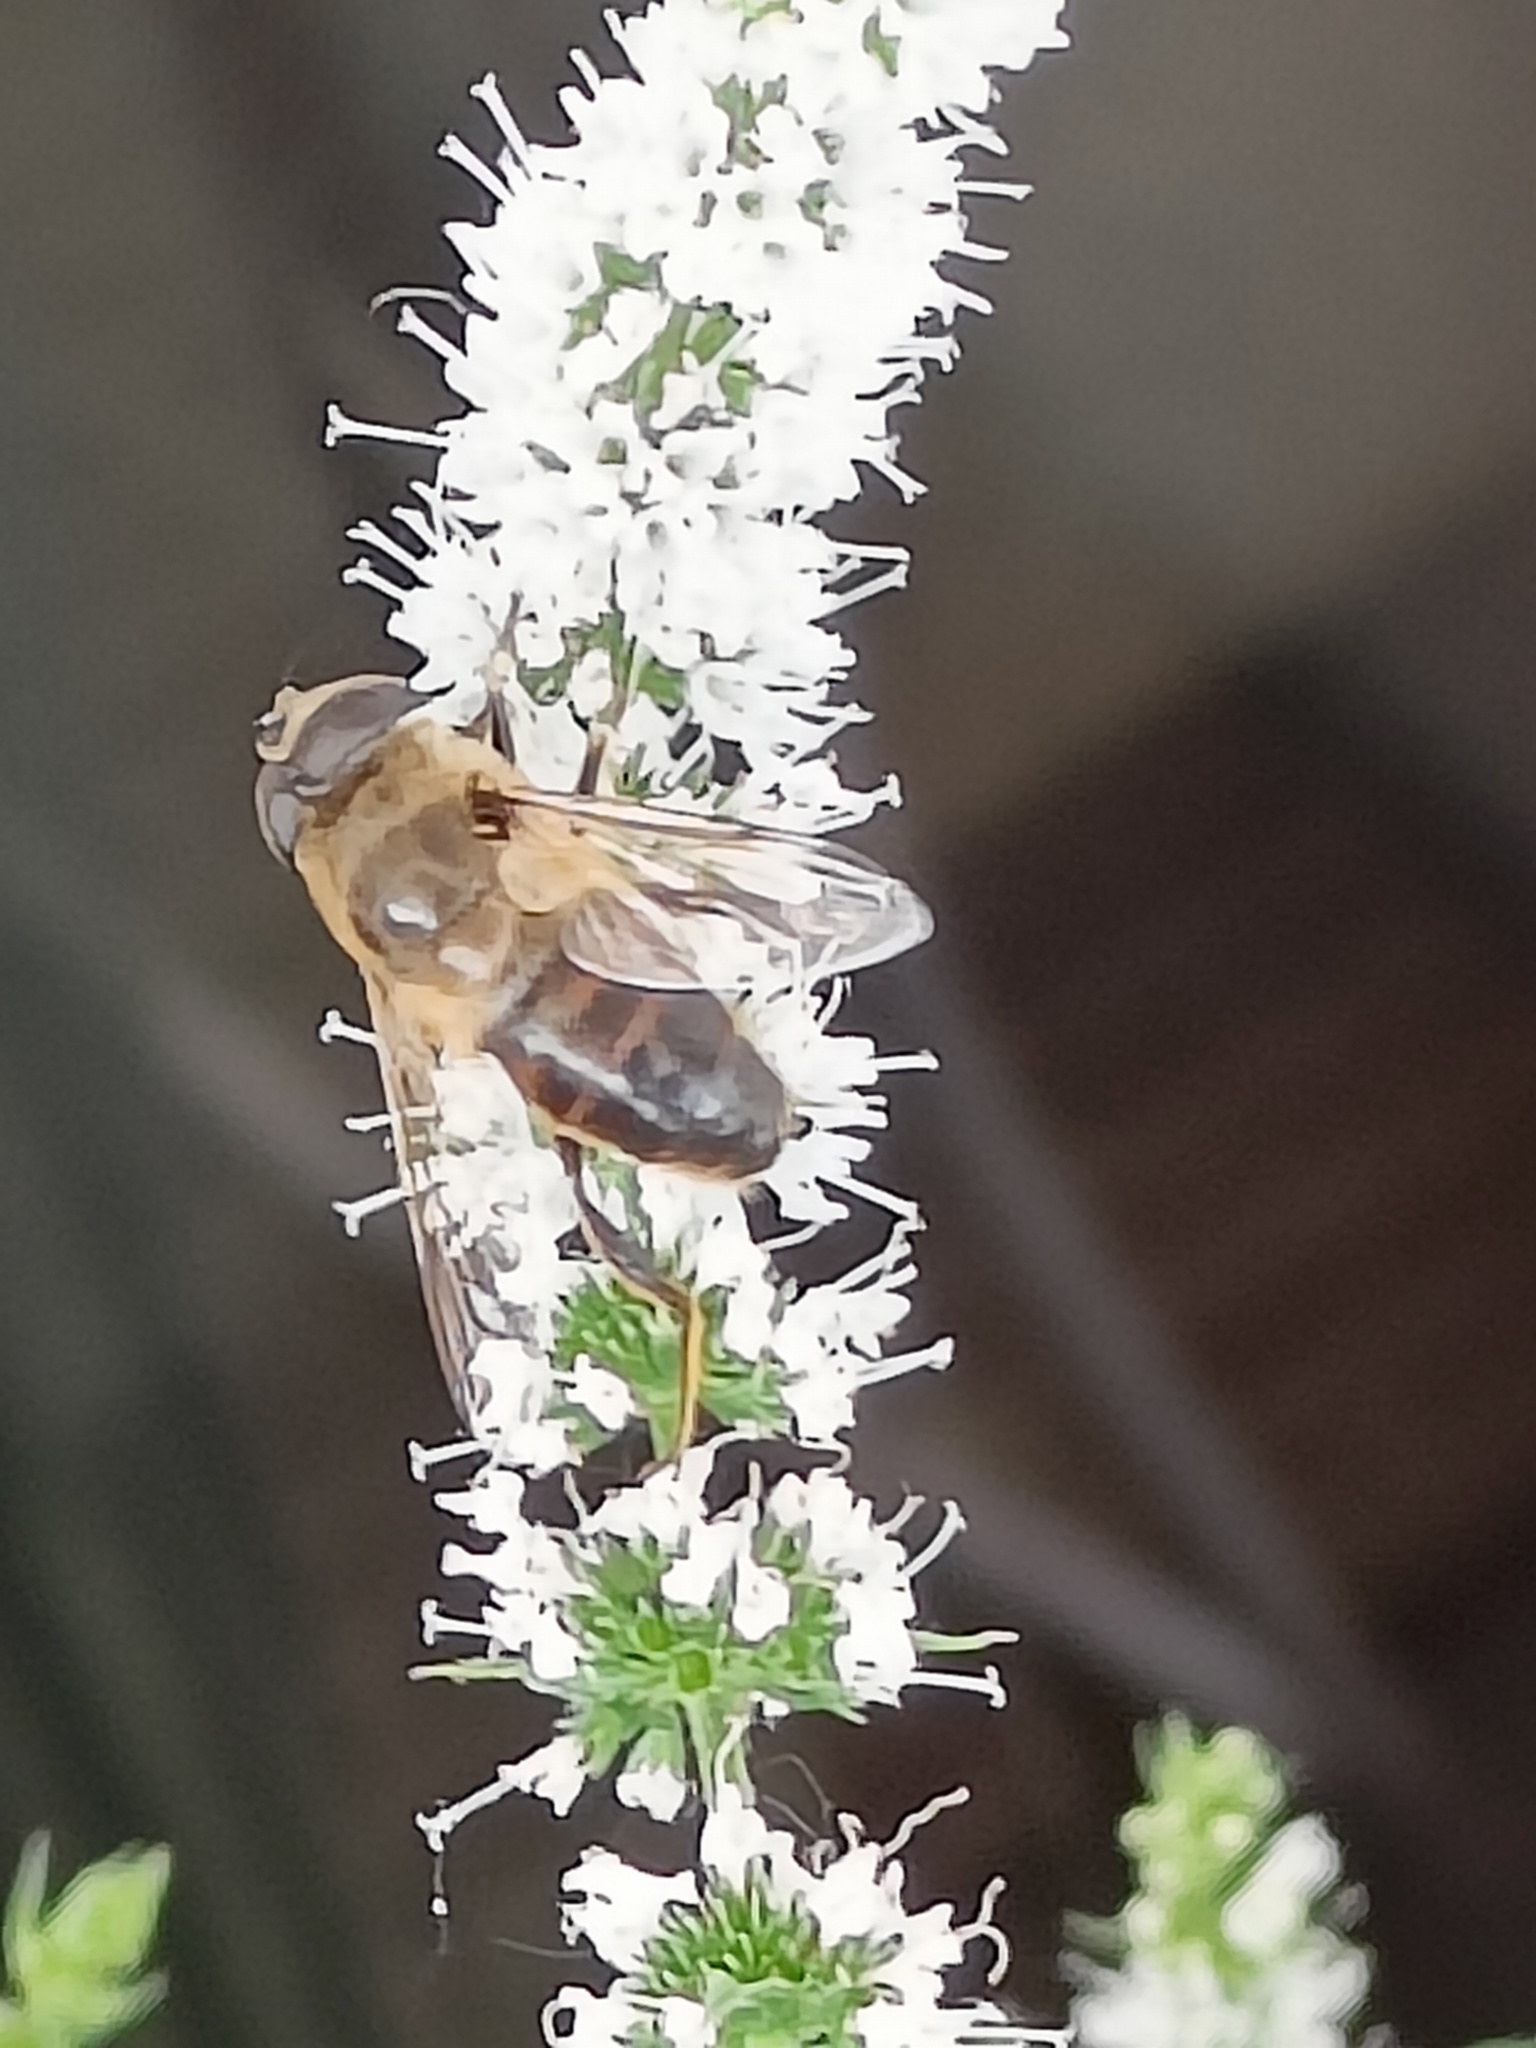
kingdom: Animalia
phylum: Arthropoda
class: Insecta
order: Diptera
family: Syrphidae
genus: Eristalis
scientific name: Eristalis tenax
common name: Drone fly
